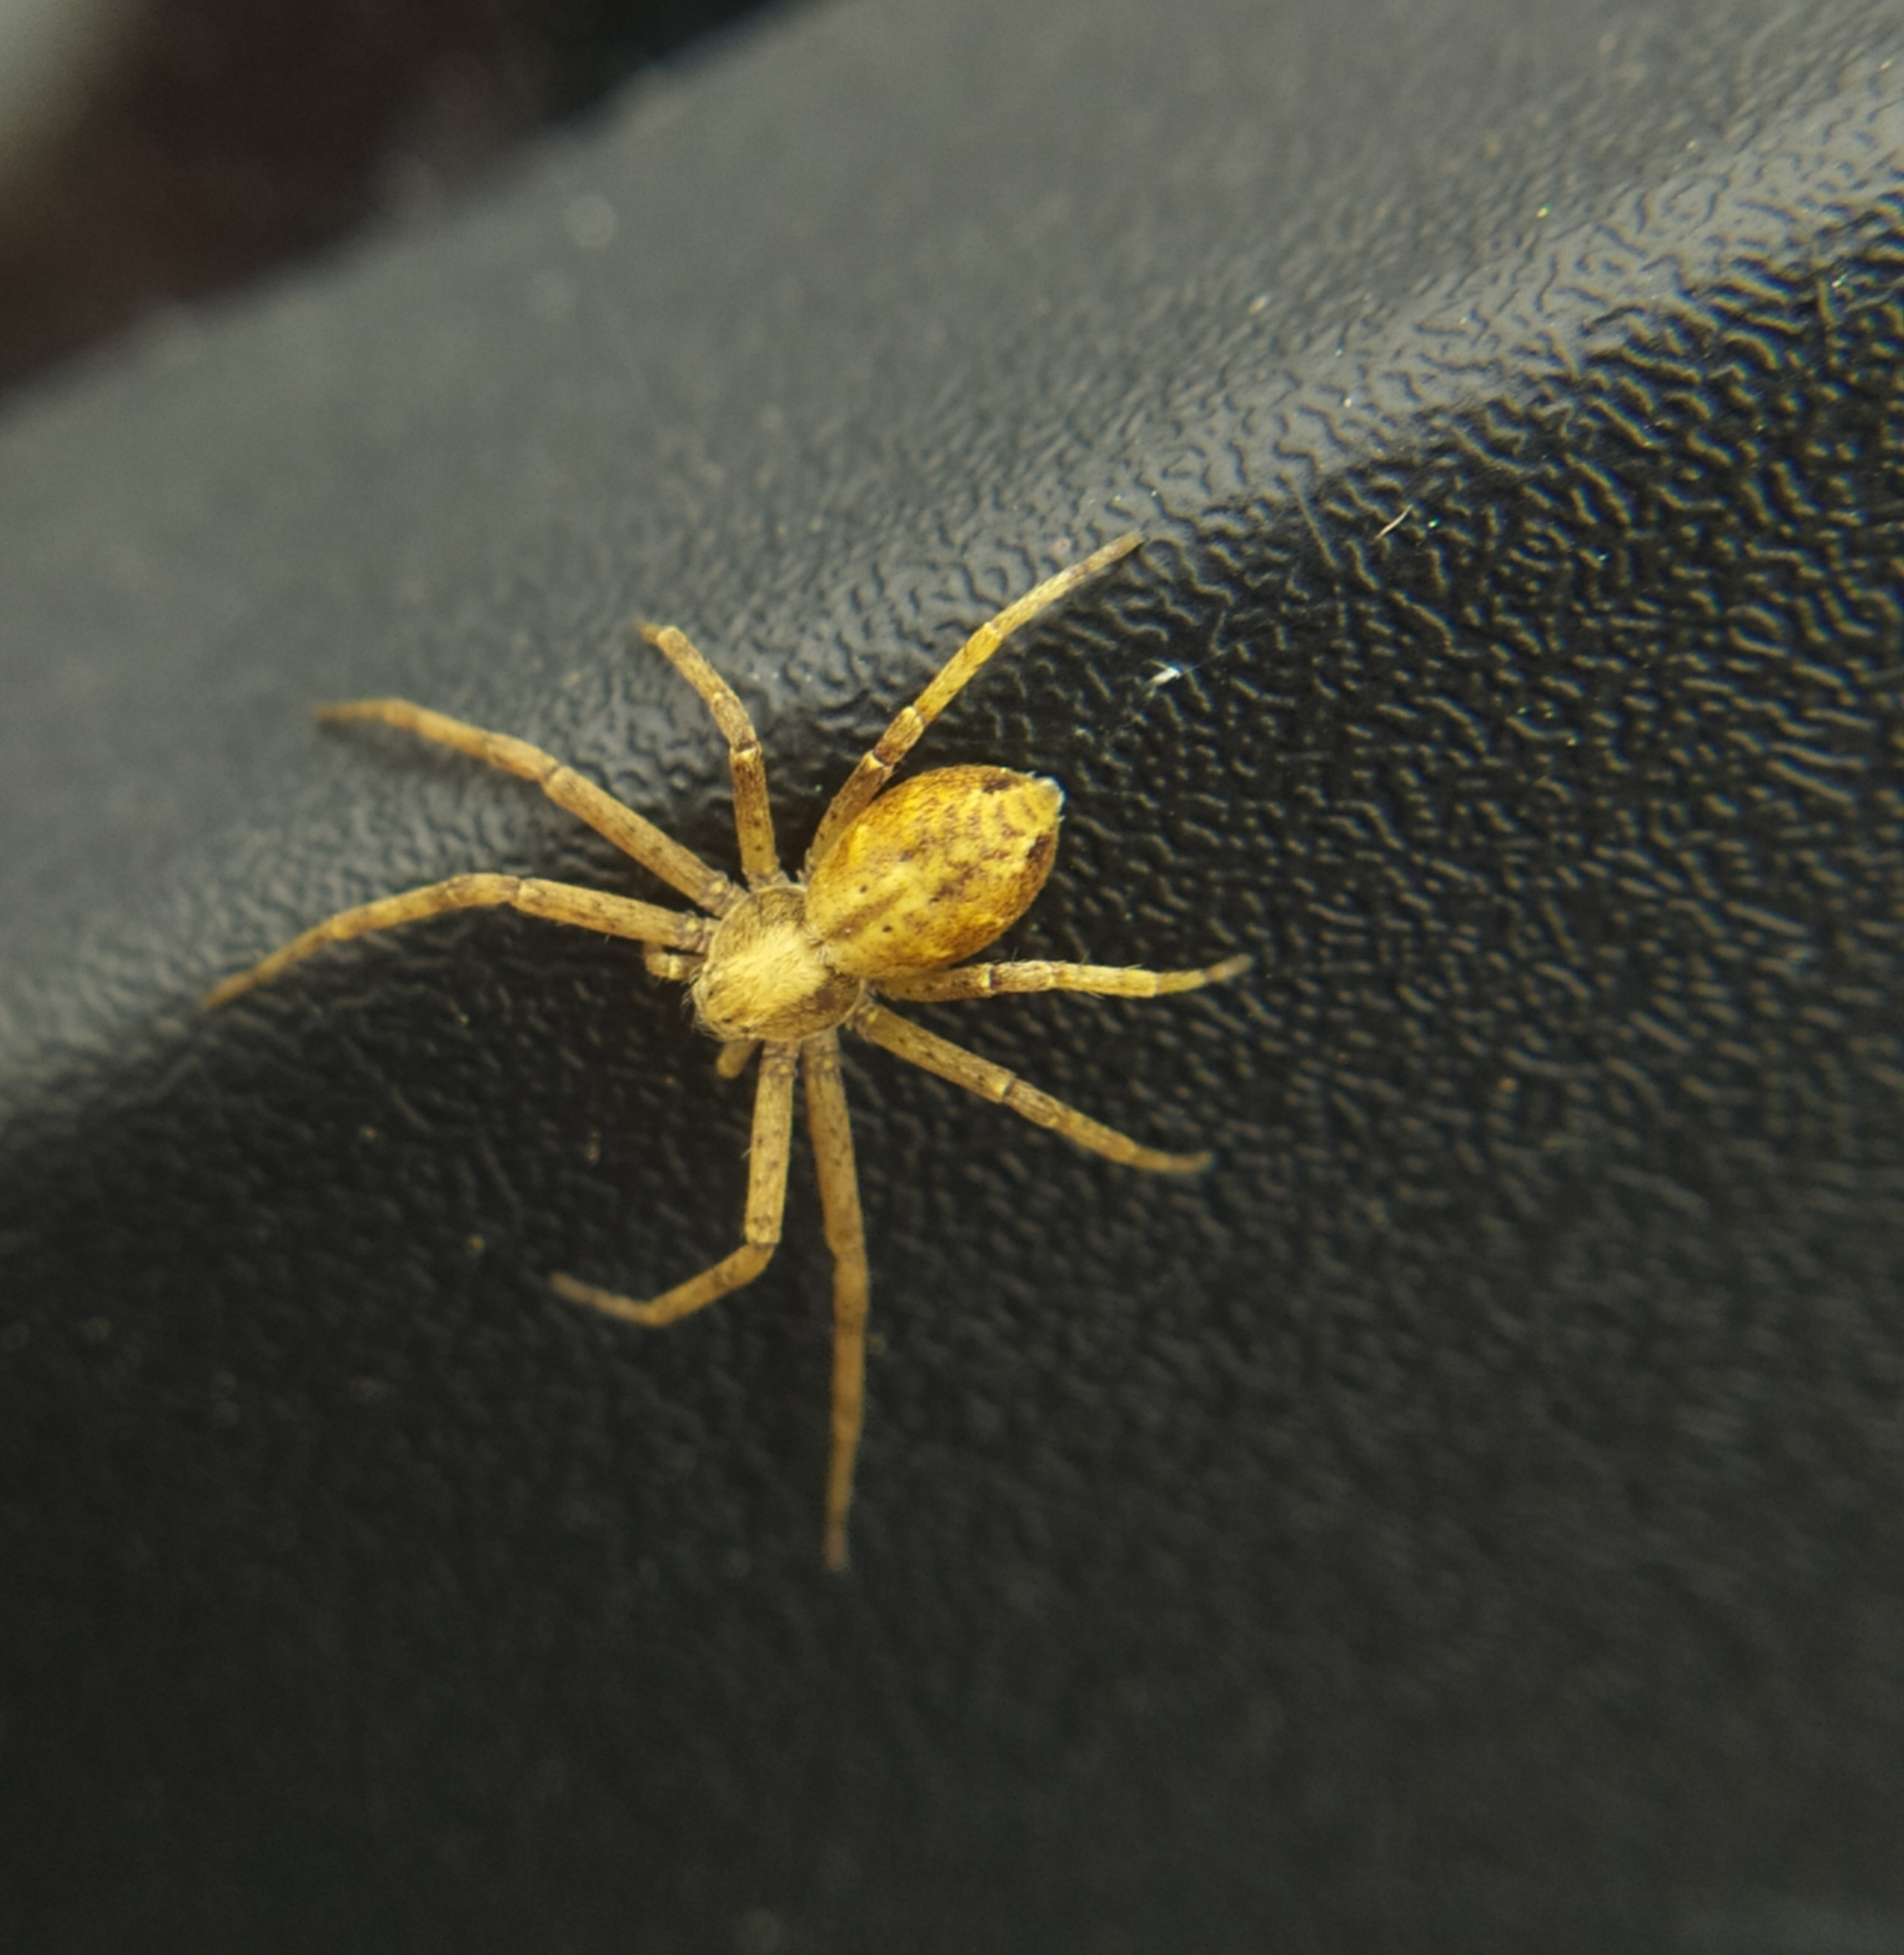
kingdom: Animalia
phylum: Arthropoda
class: Arachnida
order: Araneae
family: Philodromidae
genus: Philodromus
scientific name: Philodromus aureolus
